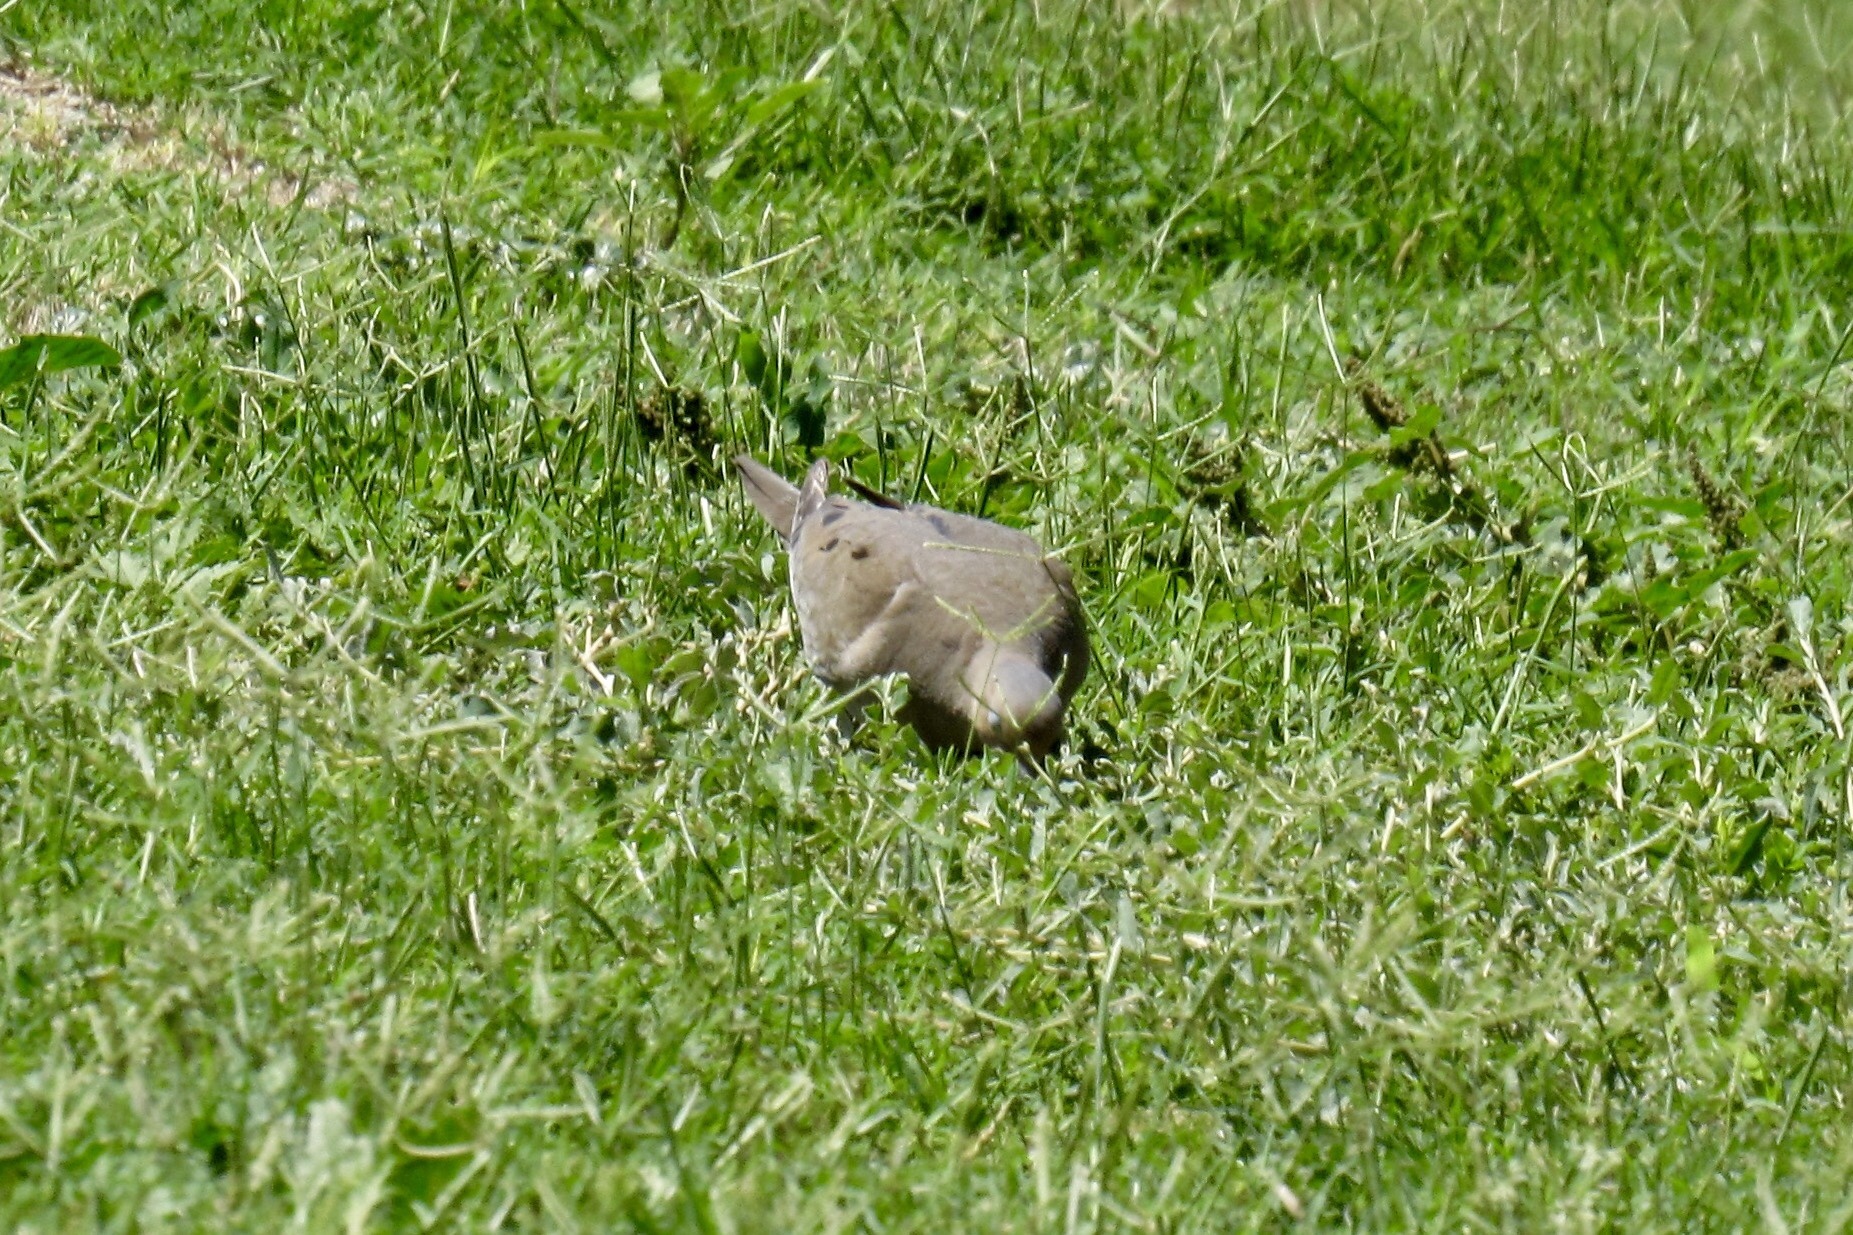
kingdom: Animalia
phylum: Chordata
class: Aves
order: Columbiformes
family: Columbidae
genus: Zenaida
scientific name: Zenaida macroura
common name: Mourning dove
